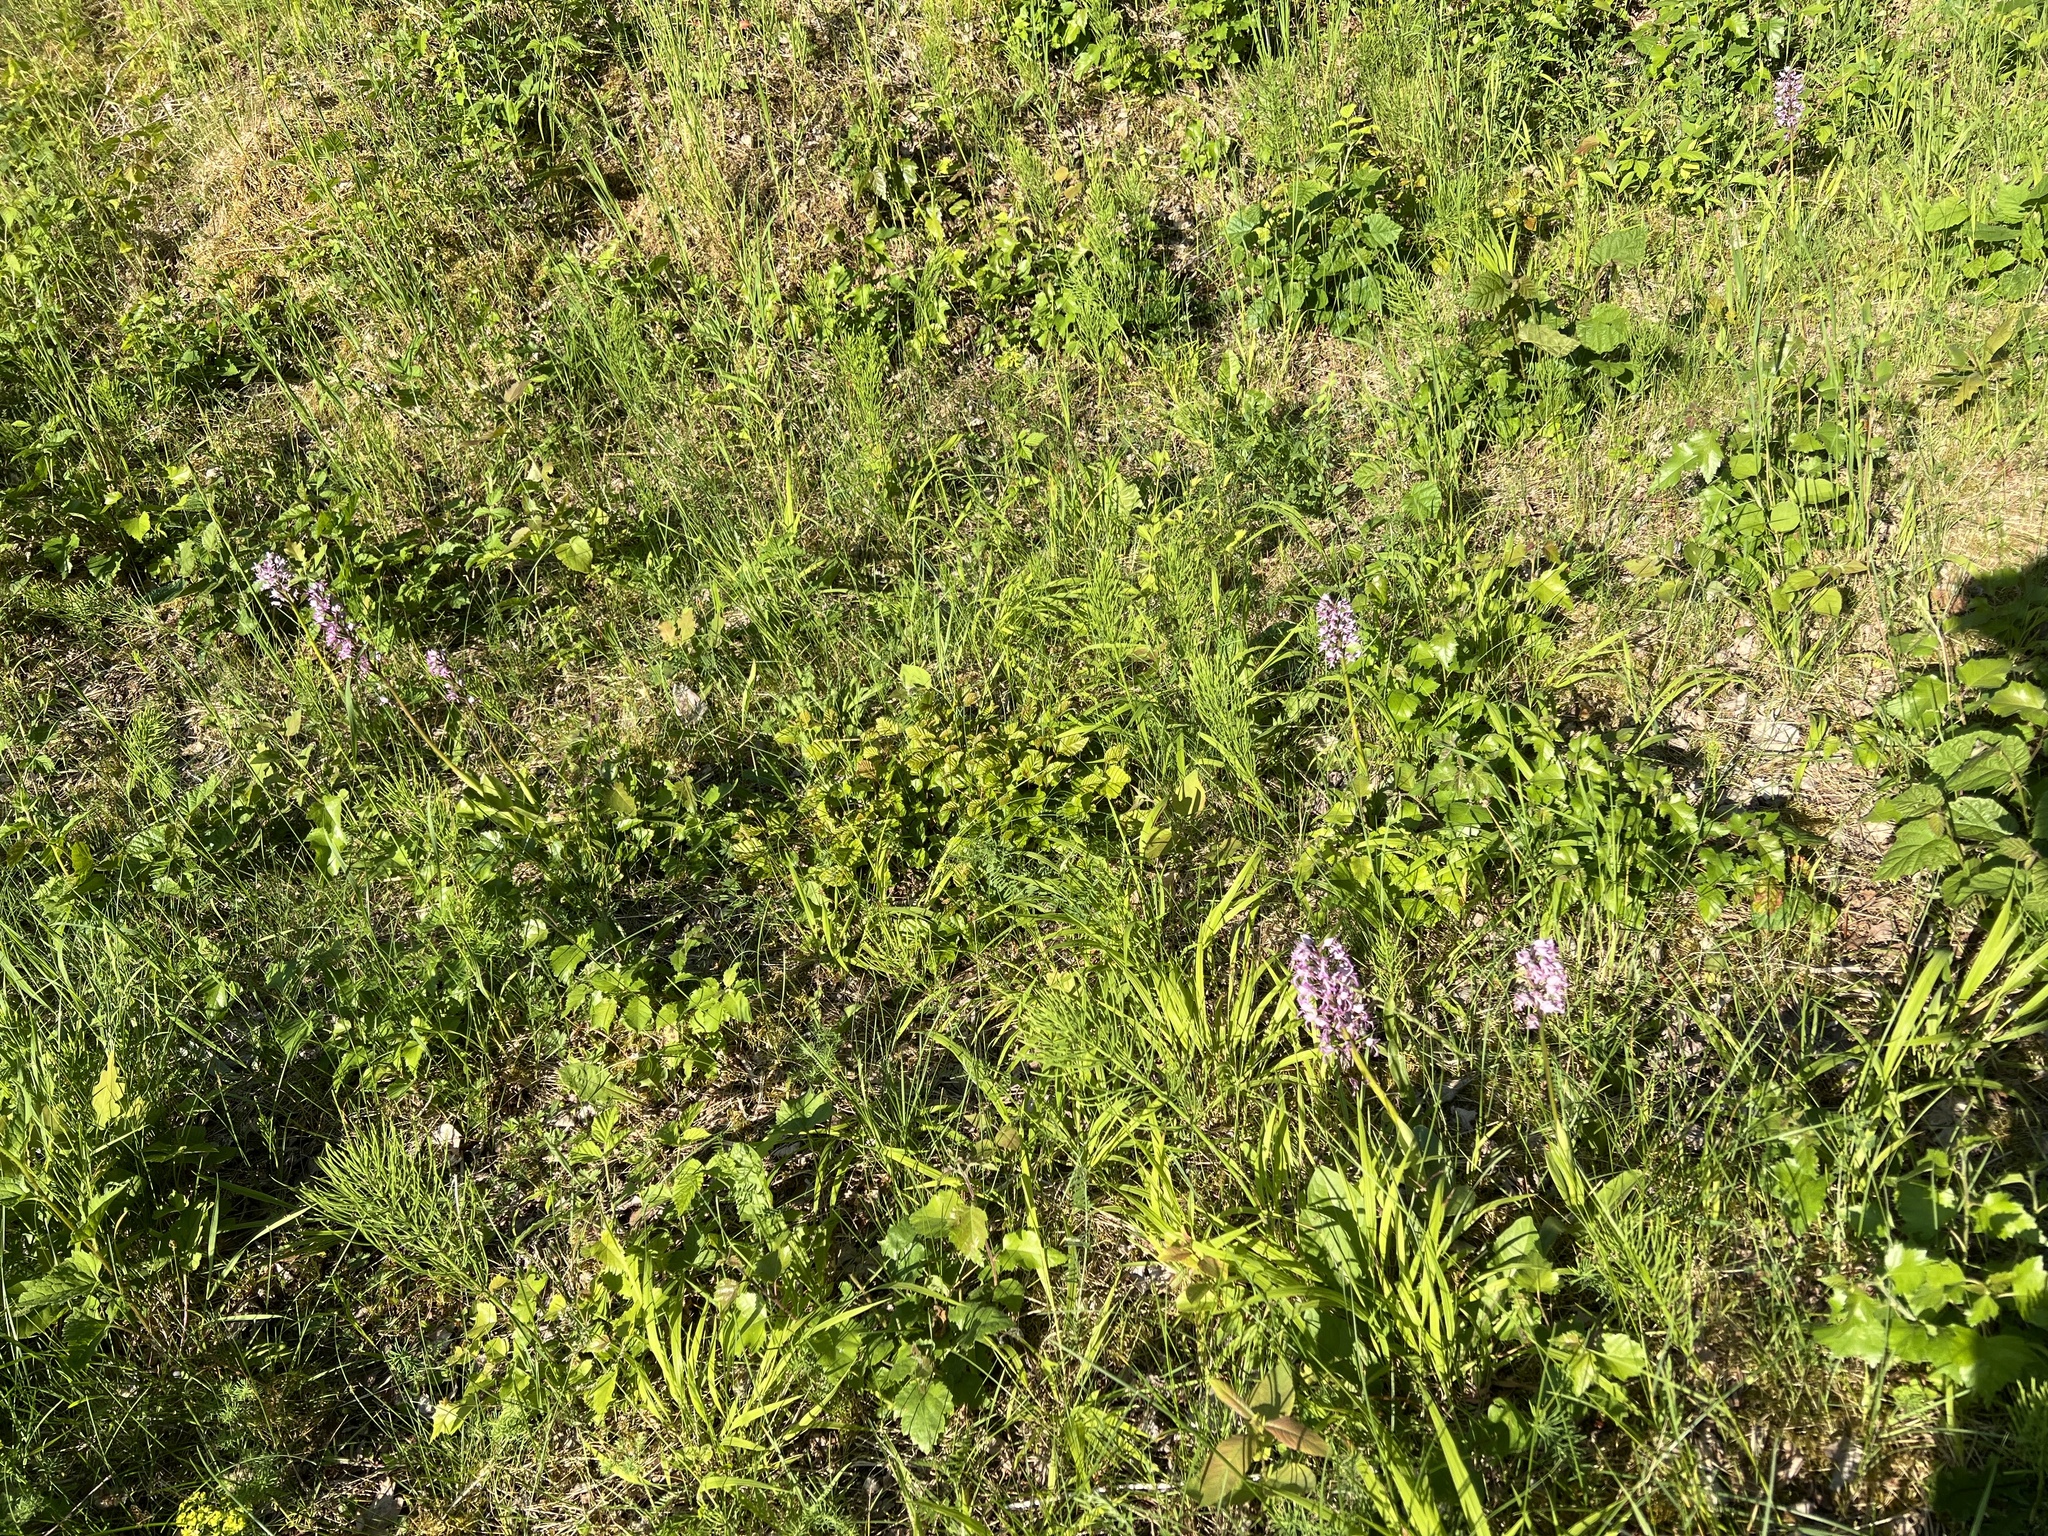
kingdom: Plantae
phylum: Tracheophyta
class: Liliopsida
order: Asparagales
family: Orchidaceae
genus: Orchis
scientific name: Orchis militaris
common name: Military orchid
